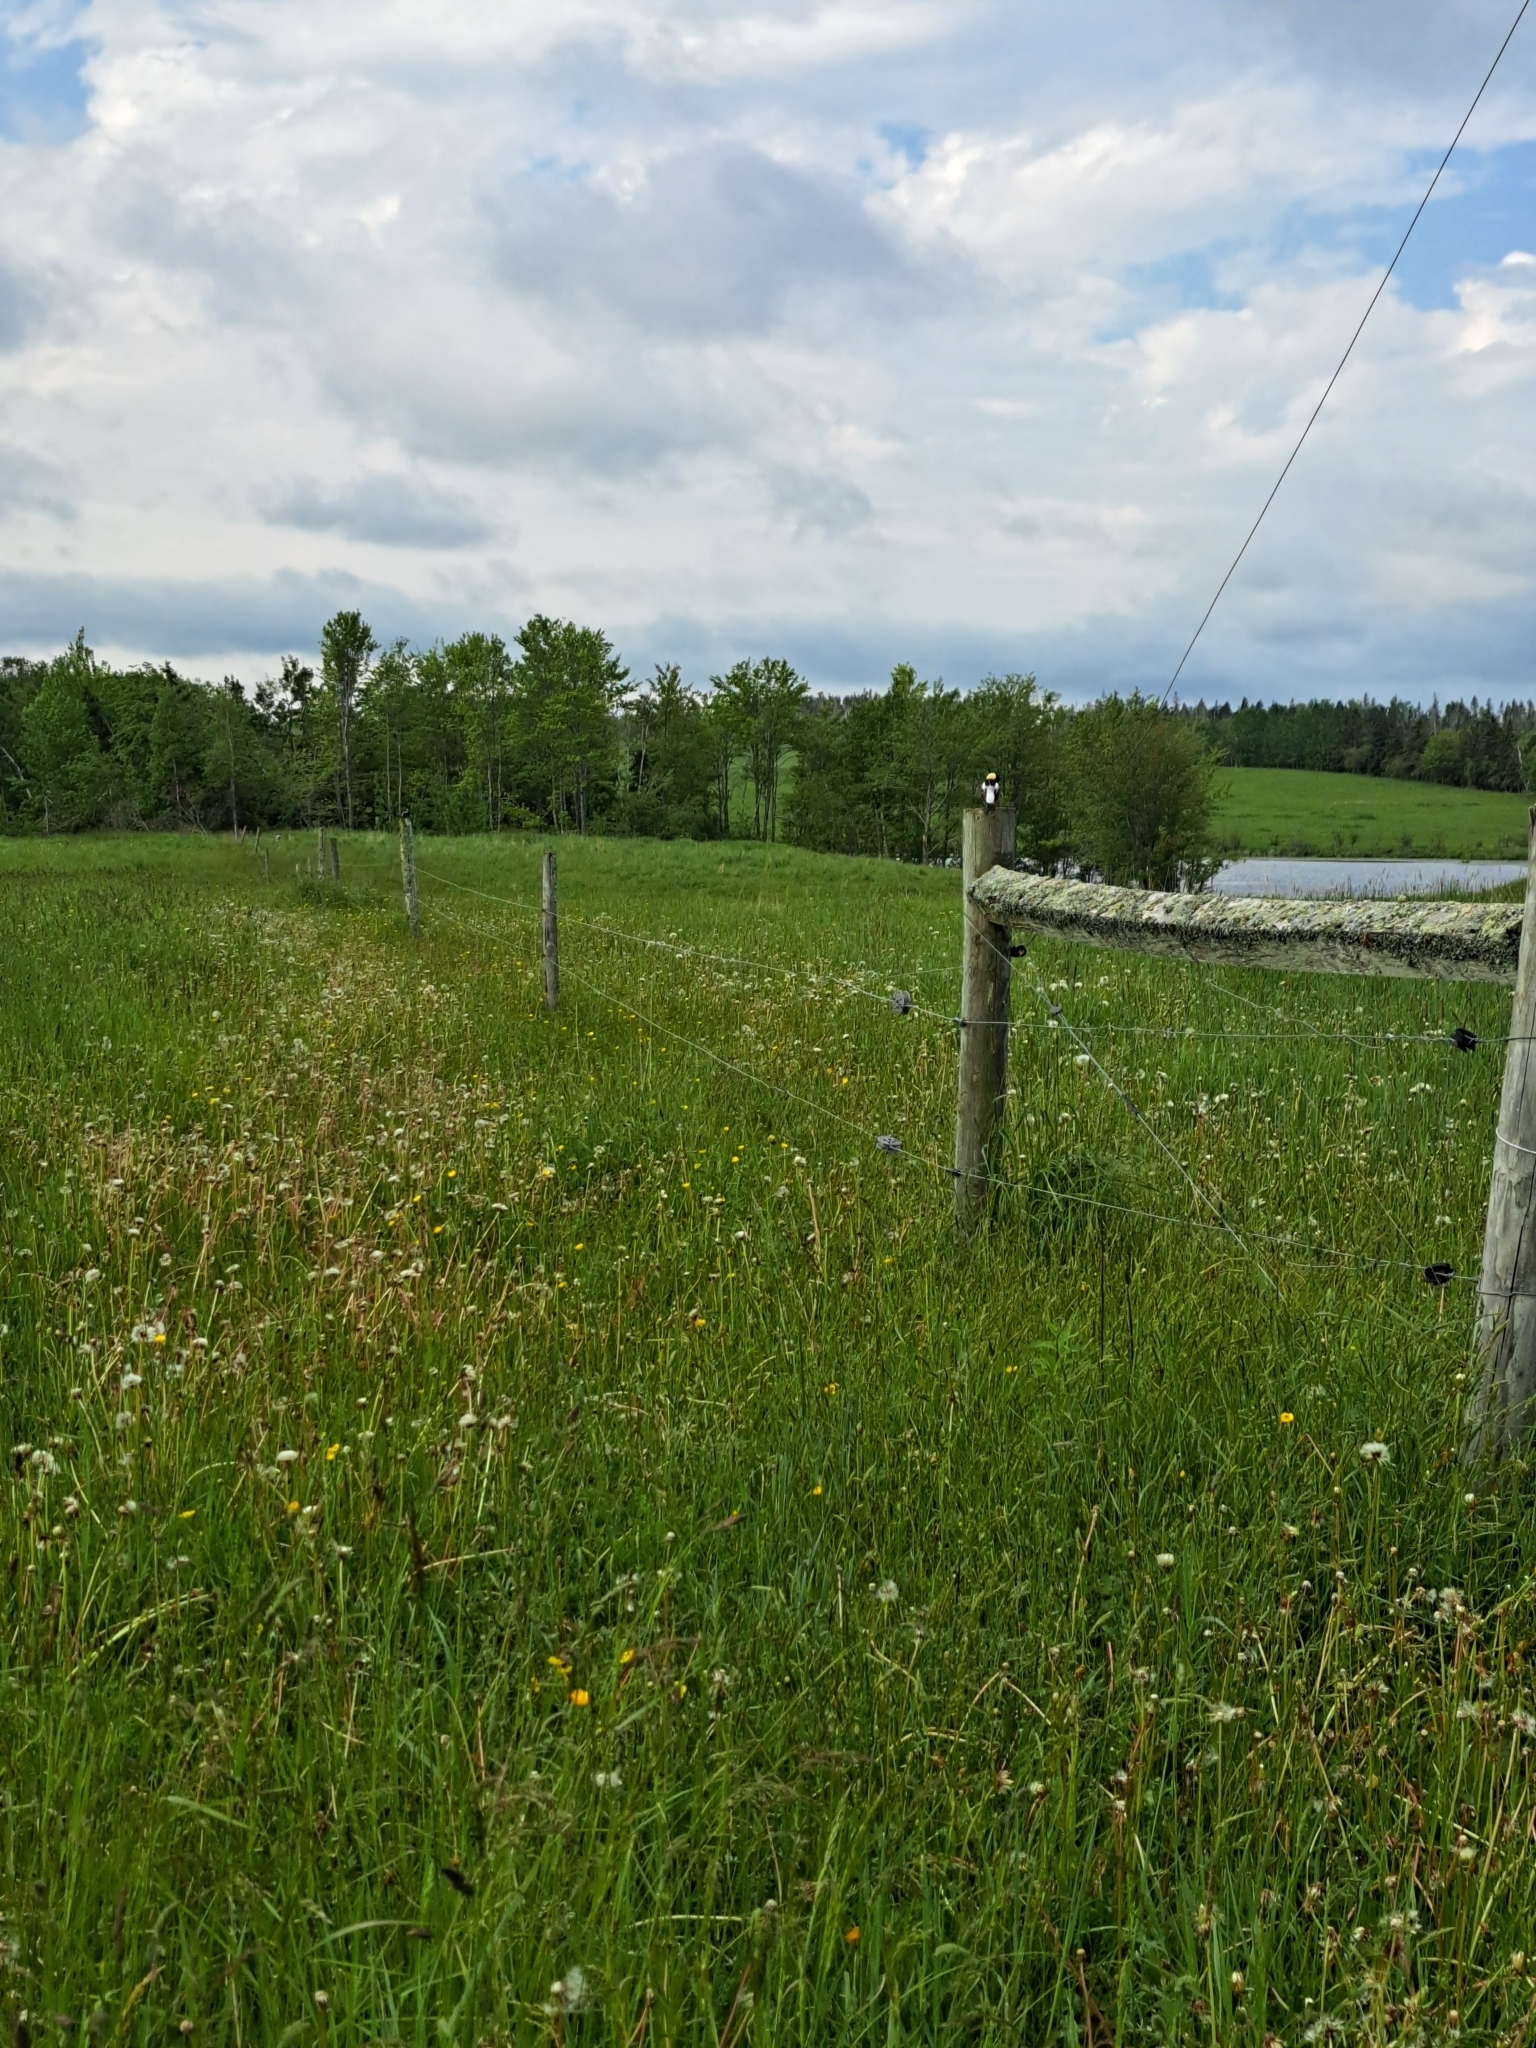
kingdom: Animalia
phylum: Chordata
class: Aves
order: Passeriformes
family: Icteridae
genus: Dolichonyx
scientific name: Dolichonyx oryzivorus
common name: Bobolink
